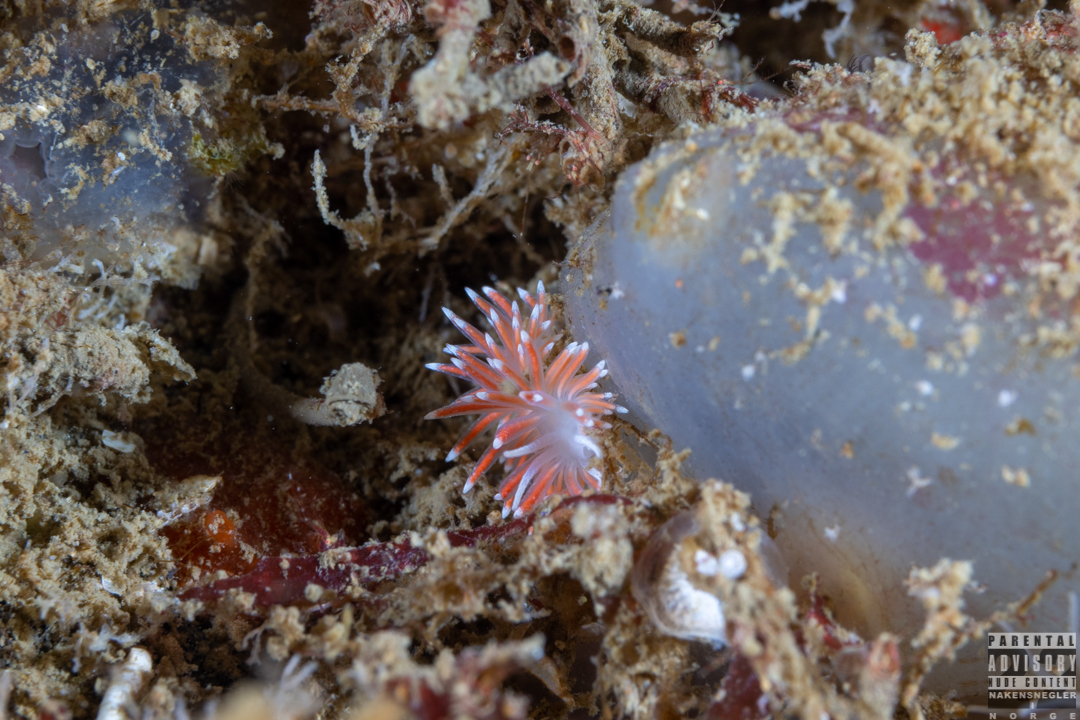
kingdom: Animalia
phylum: Mollusca
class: Gastropoda
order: Nudibranchia
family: Flabellinidae
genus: Carronella
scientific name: Carronella pellucida
